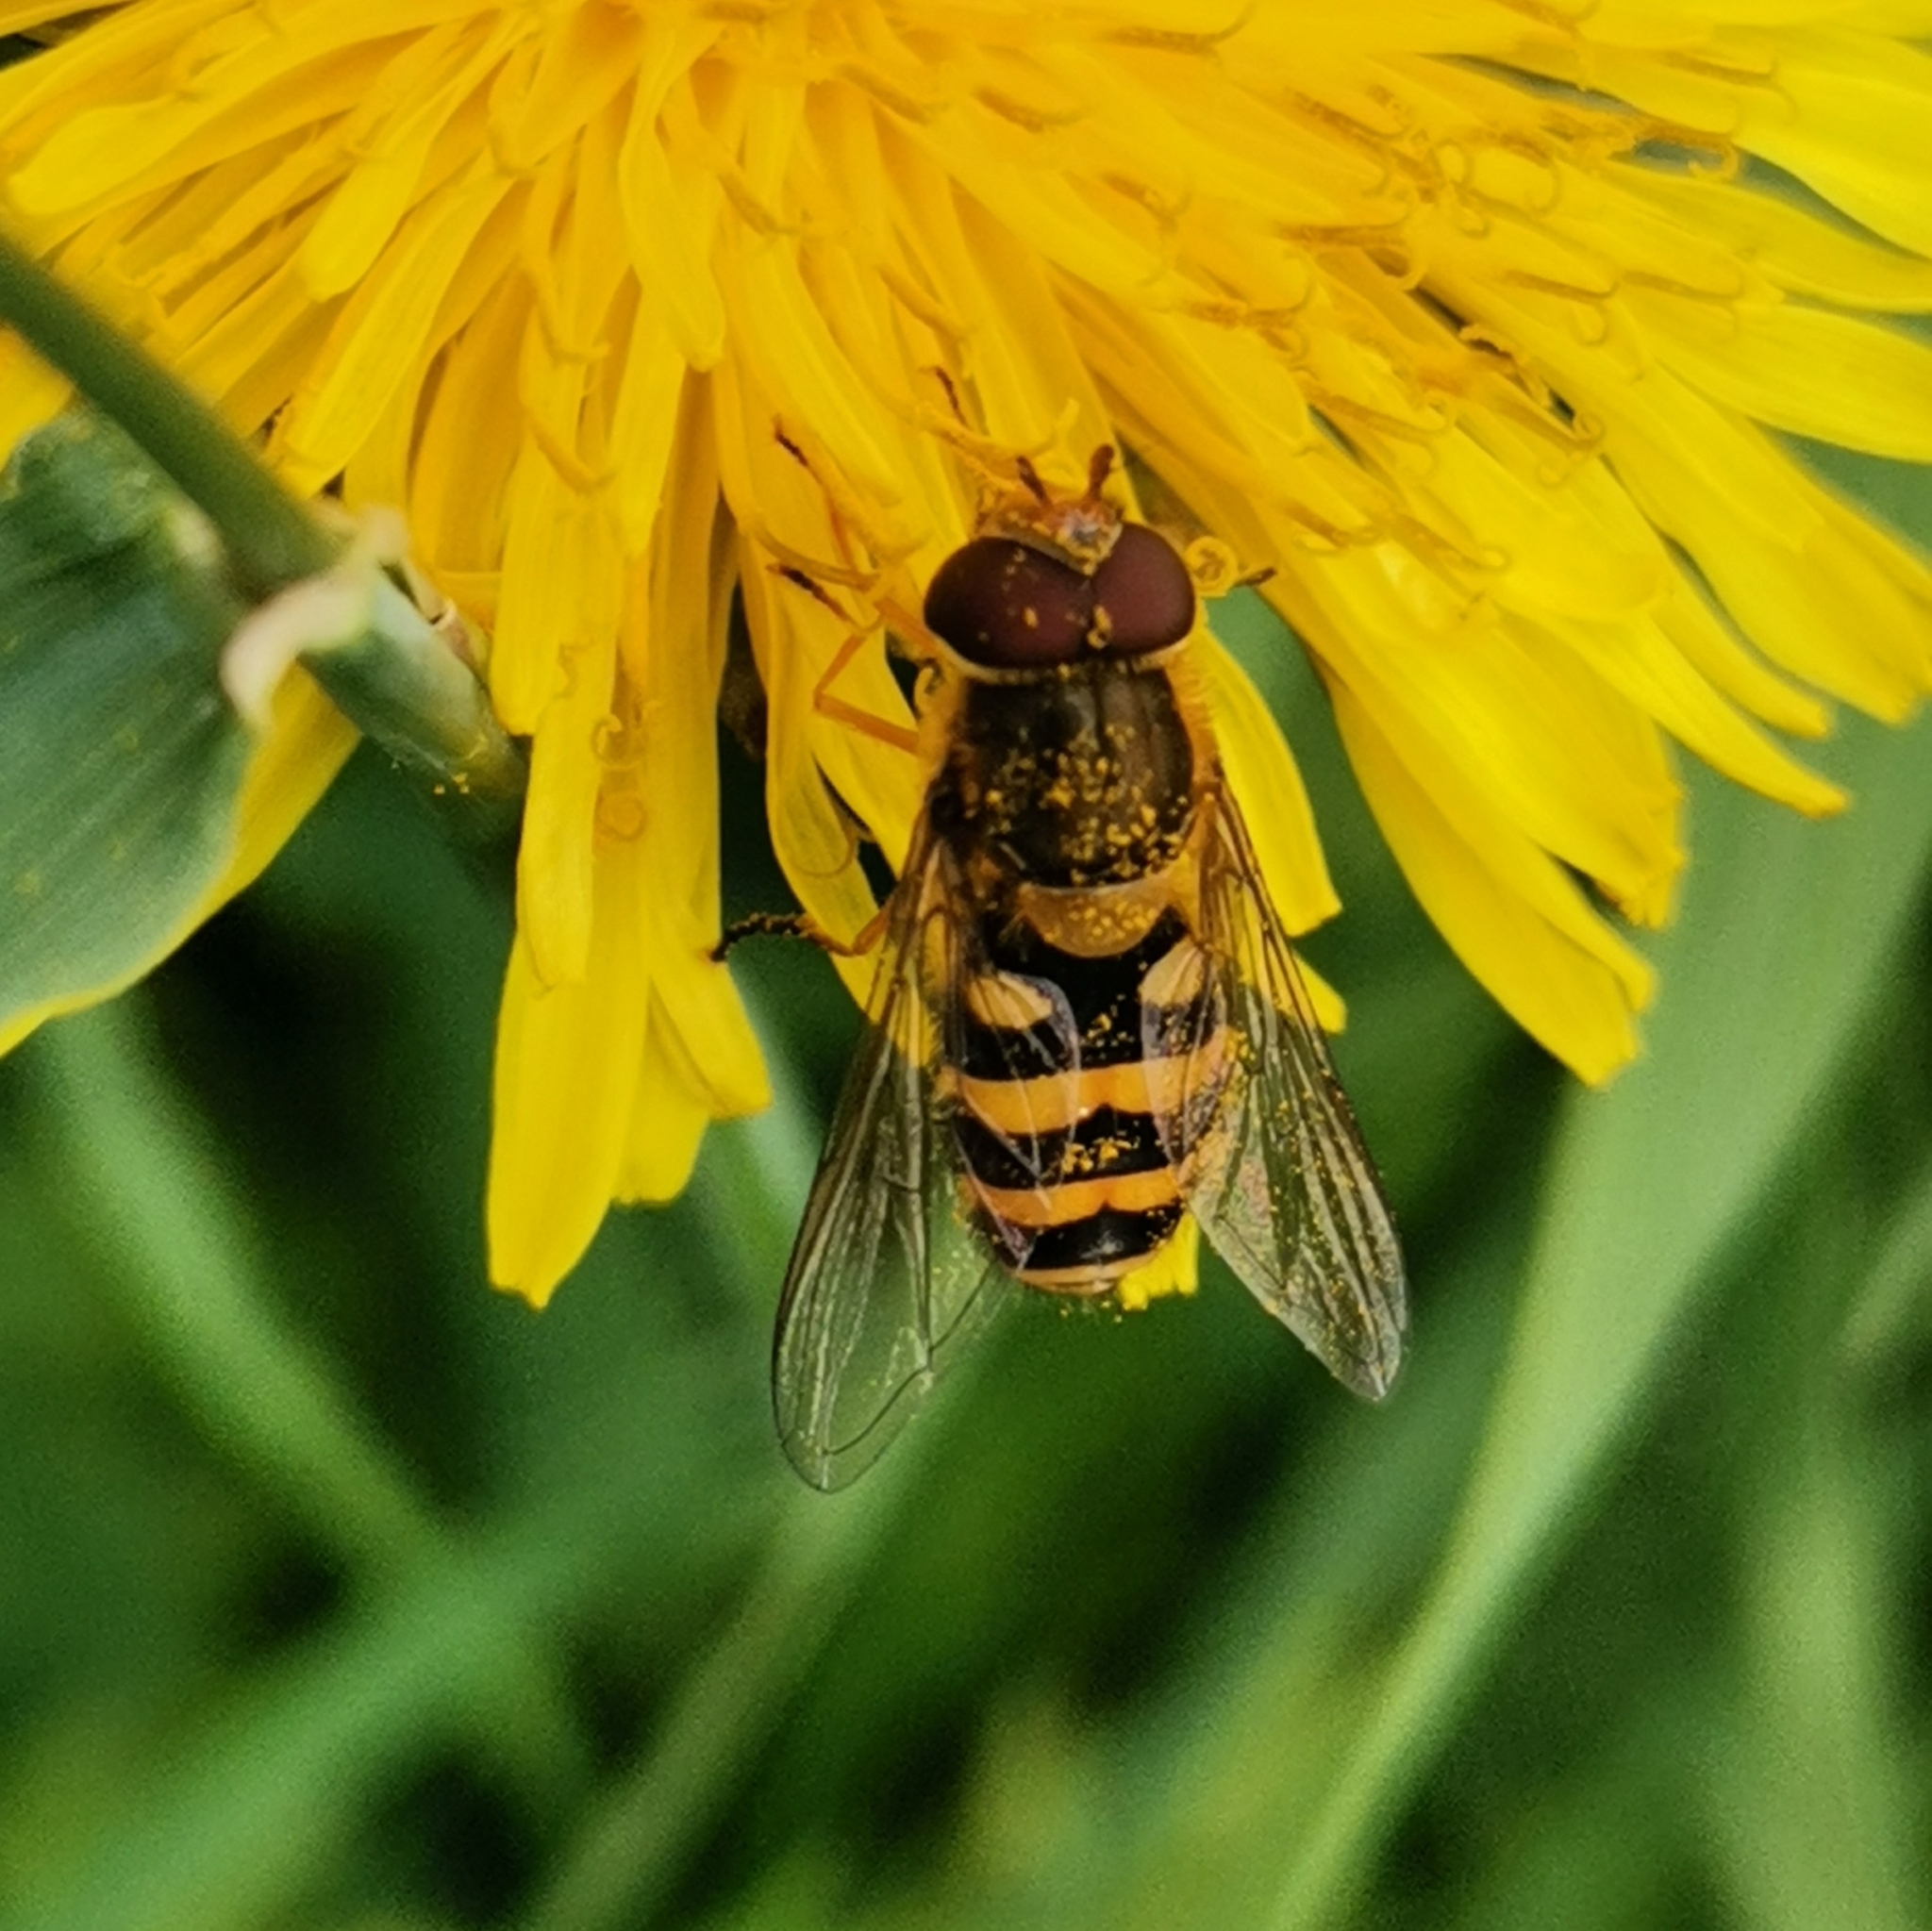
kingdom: Animalia
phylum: Arthropoda
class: Insecta
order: Diptera
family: Syrphidae
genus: Syrphus
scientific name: Syrphus
